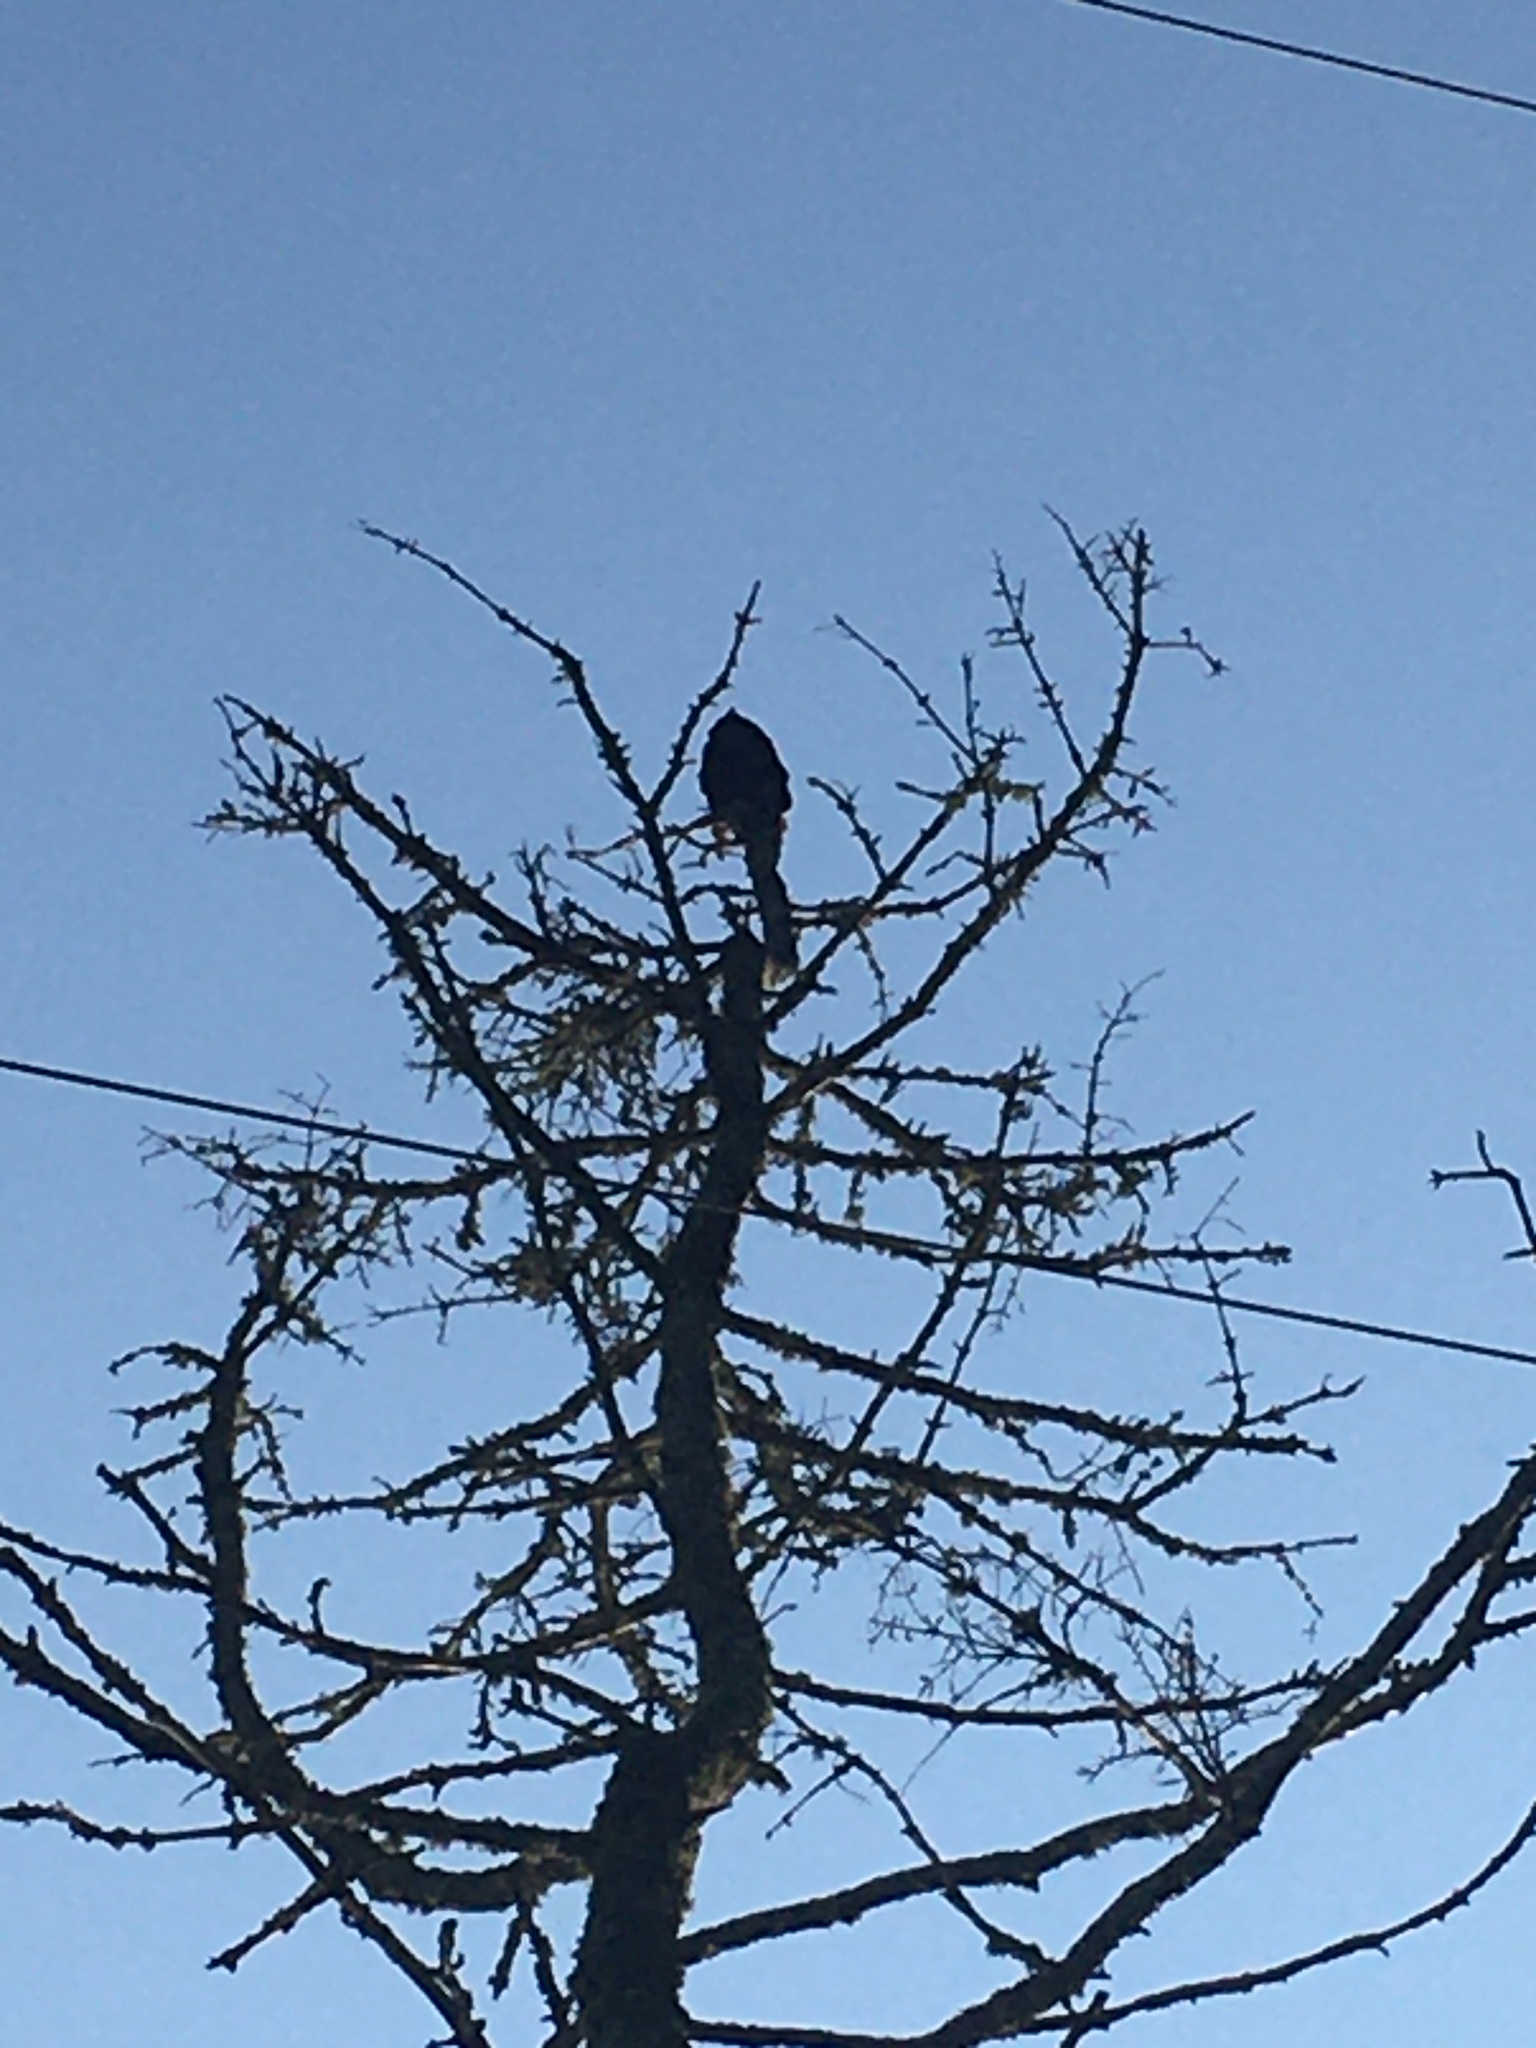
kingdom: Animalia
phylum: Chordata
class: Aves
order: Accipitriformes
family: Cathartidae
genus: Cathartes
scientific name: Cathartes aura
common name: Turkey vulture
